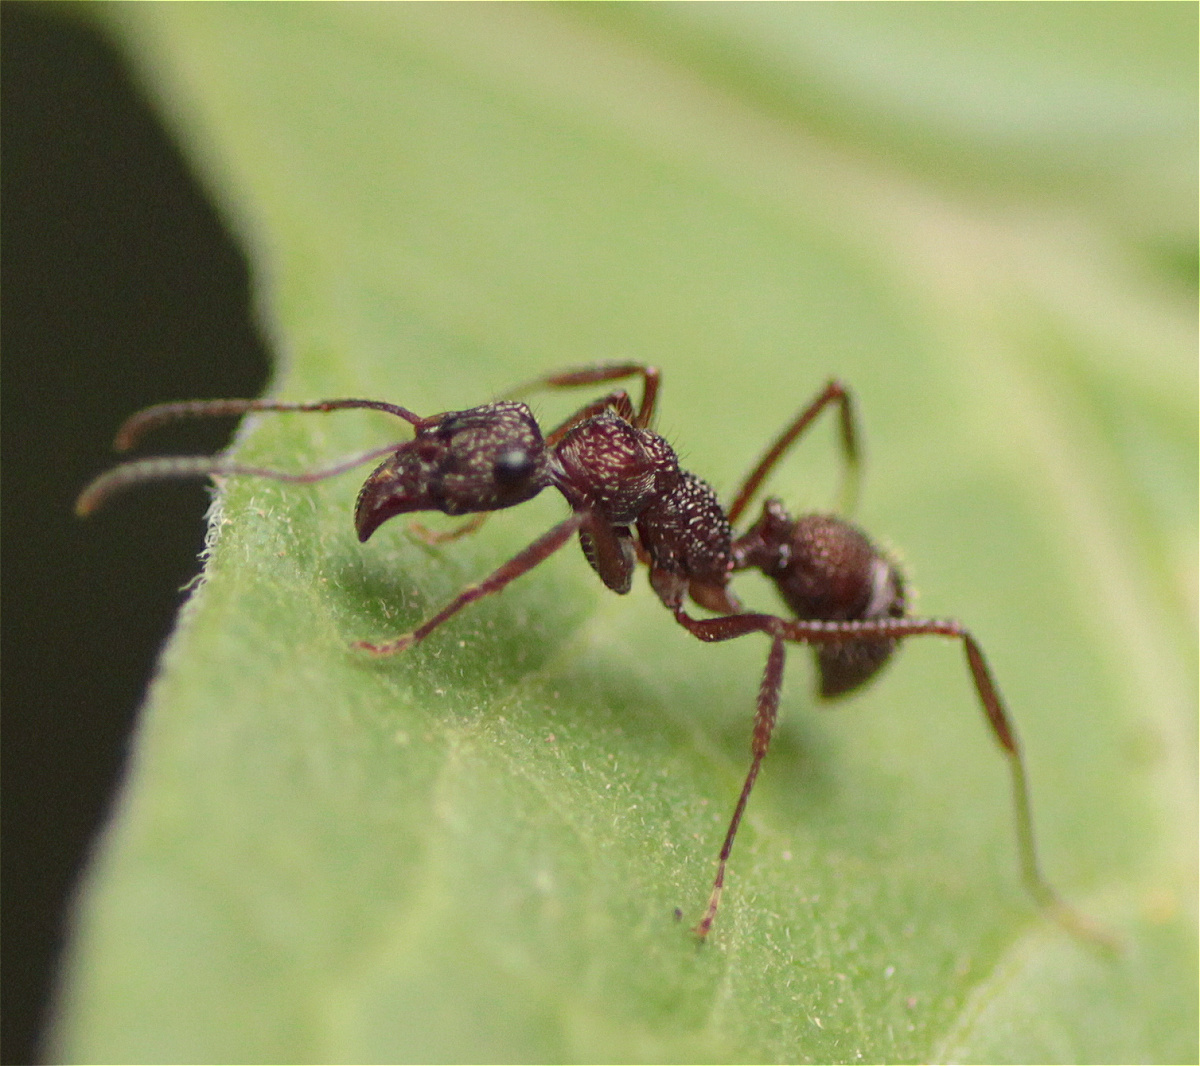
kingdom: Animalia
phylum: Arthropoda
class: Insecta
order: Hymenoptera
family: Formicidae
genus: Ectatomma
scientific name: Ectatomma ruidum
